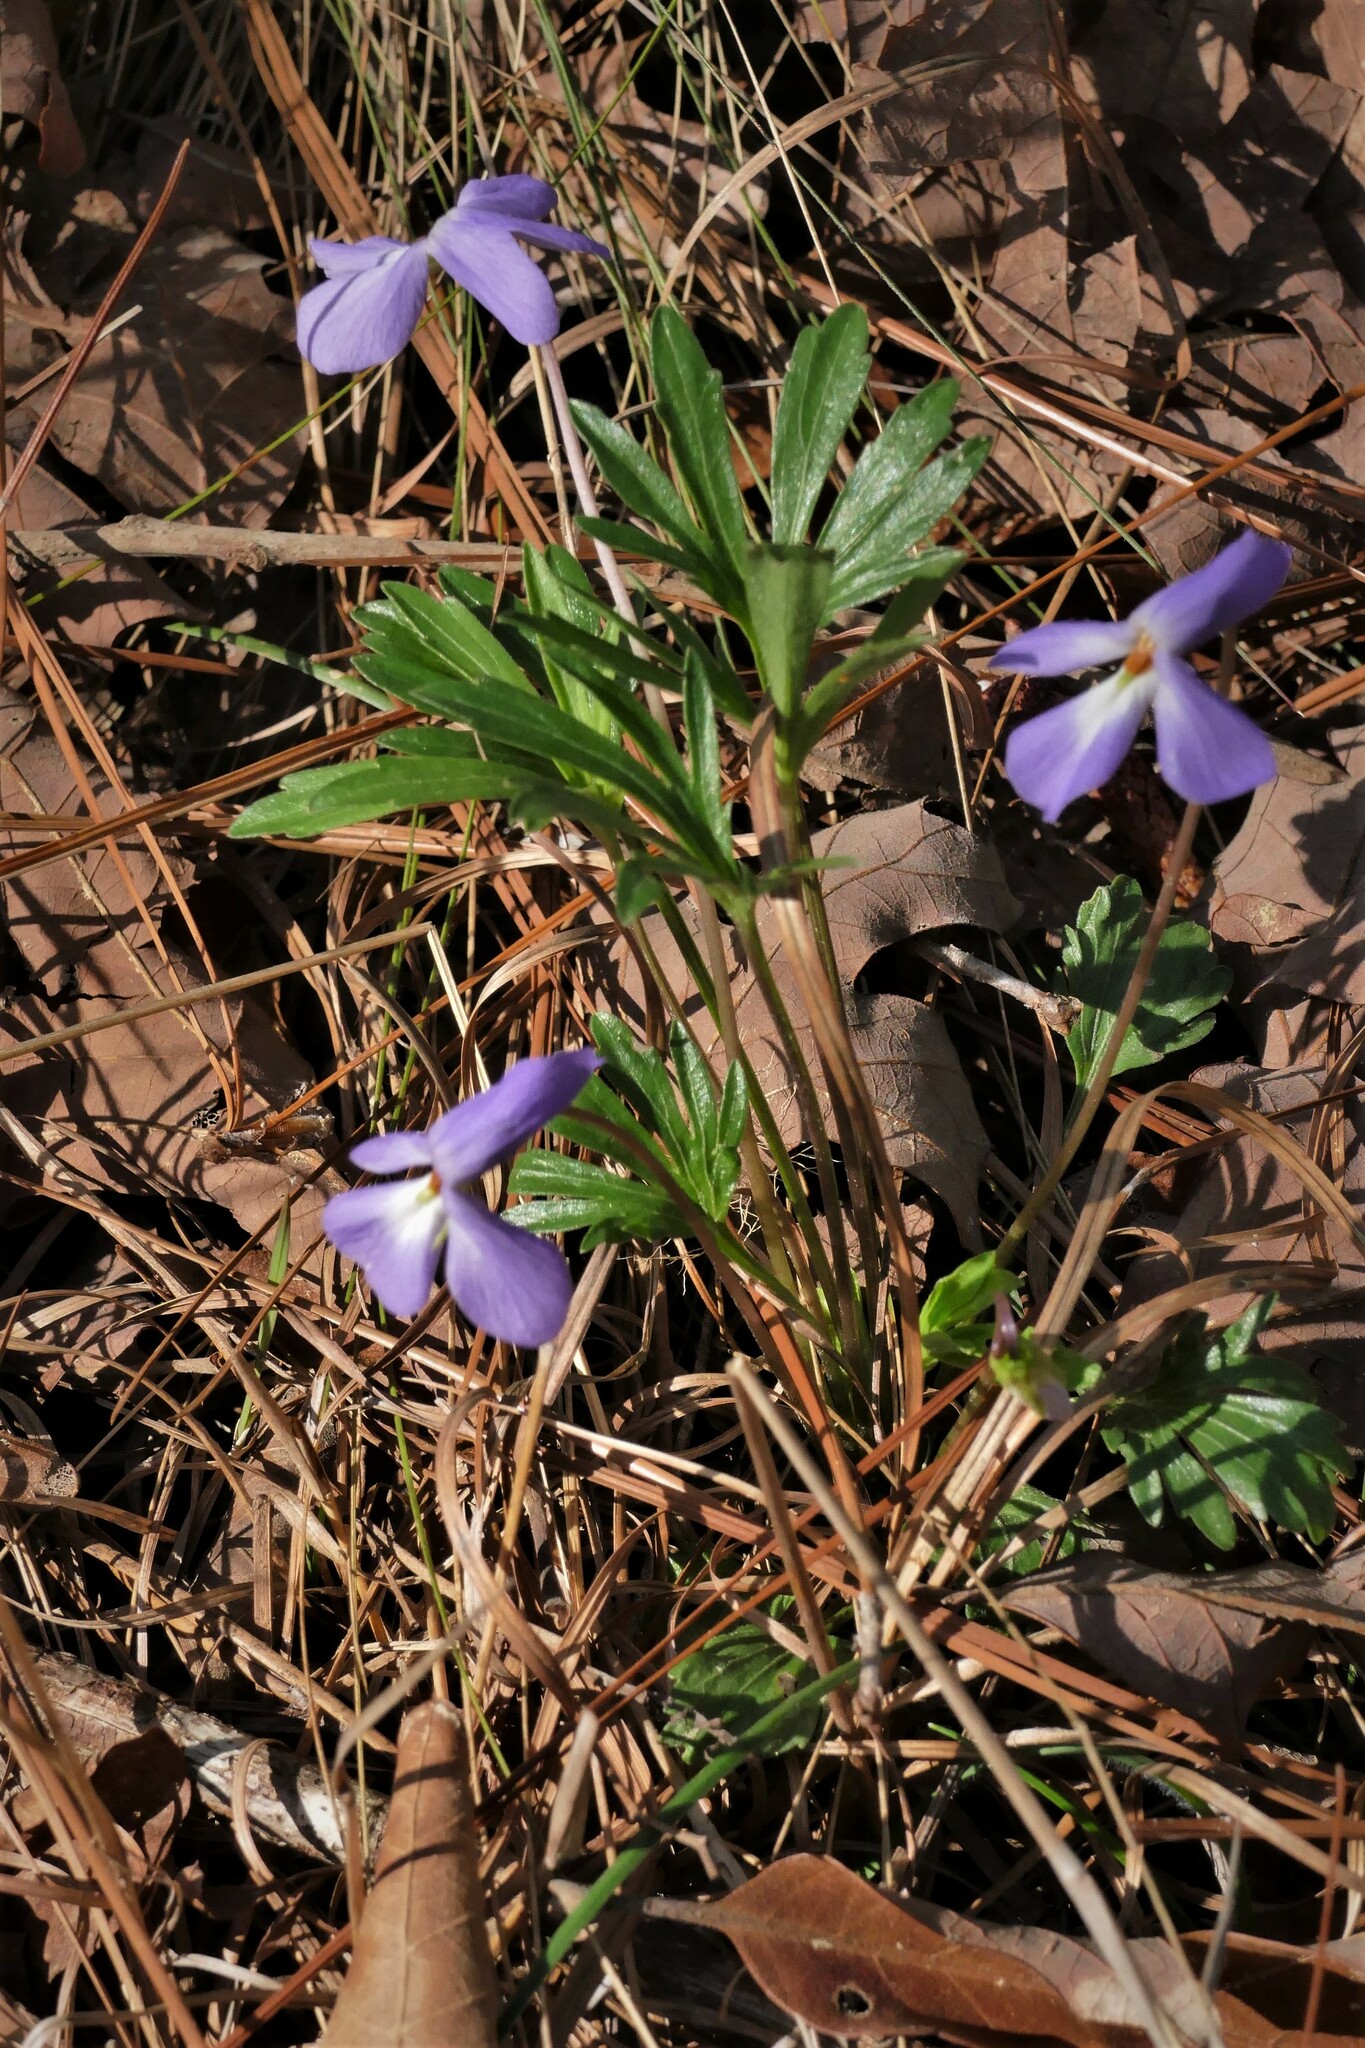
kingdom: Plantae
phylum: Tracheophyta
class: Magnoliopsida
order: Malpighiales
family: Violaceae
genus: Viola
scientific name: Viola pedata
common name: Pansy violet
